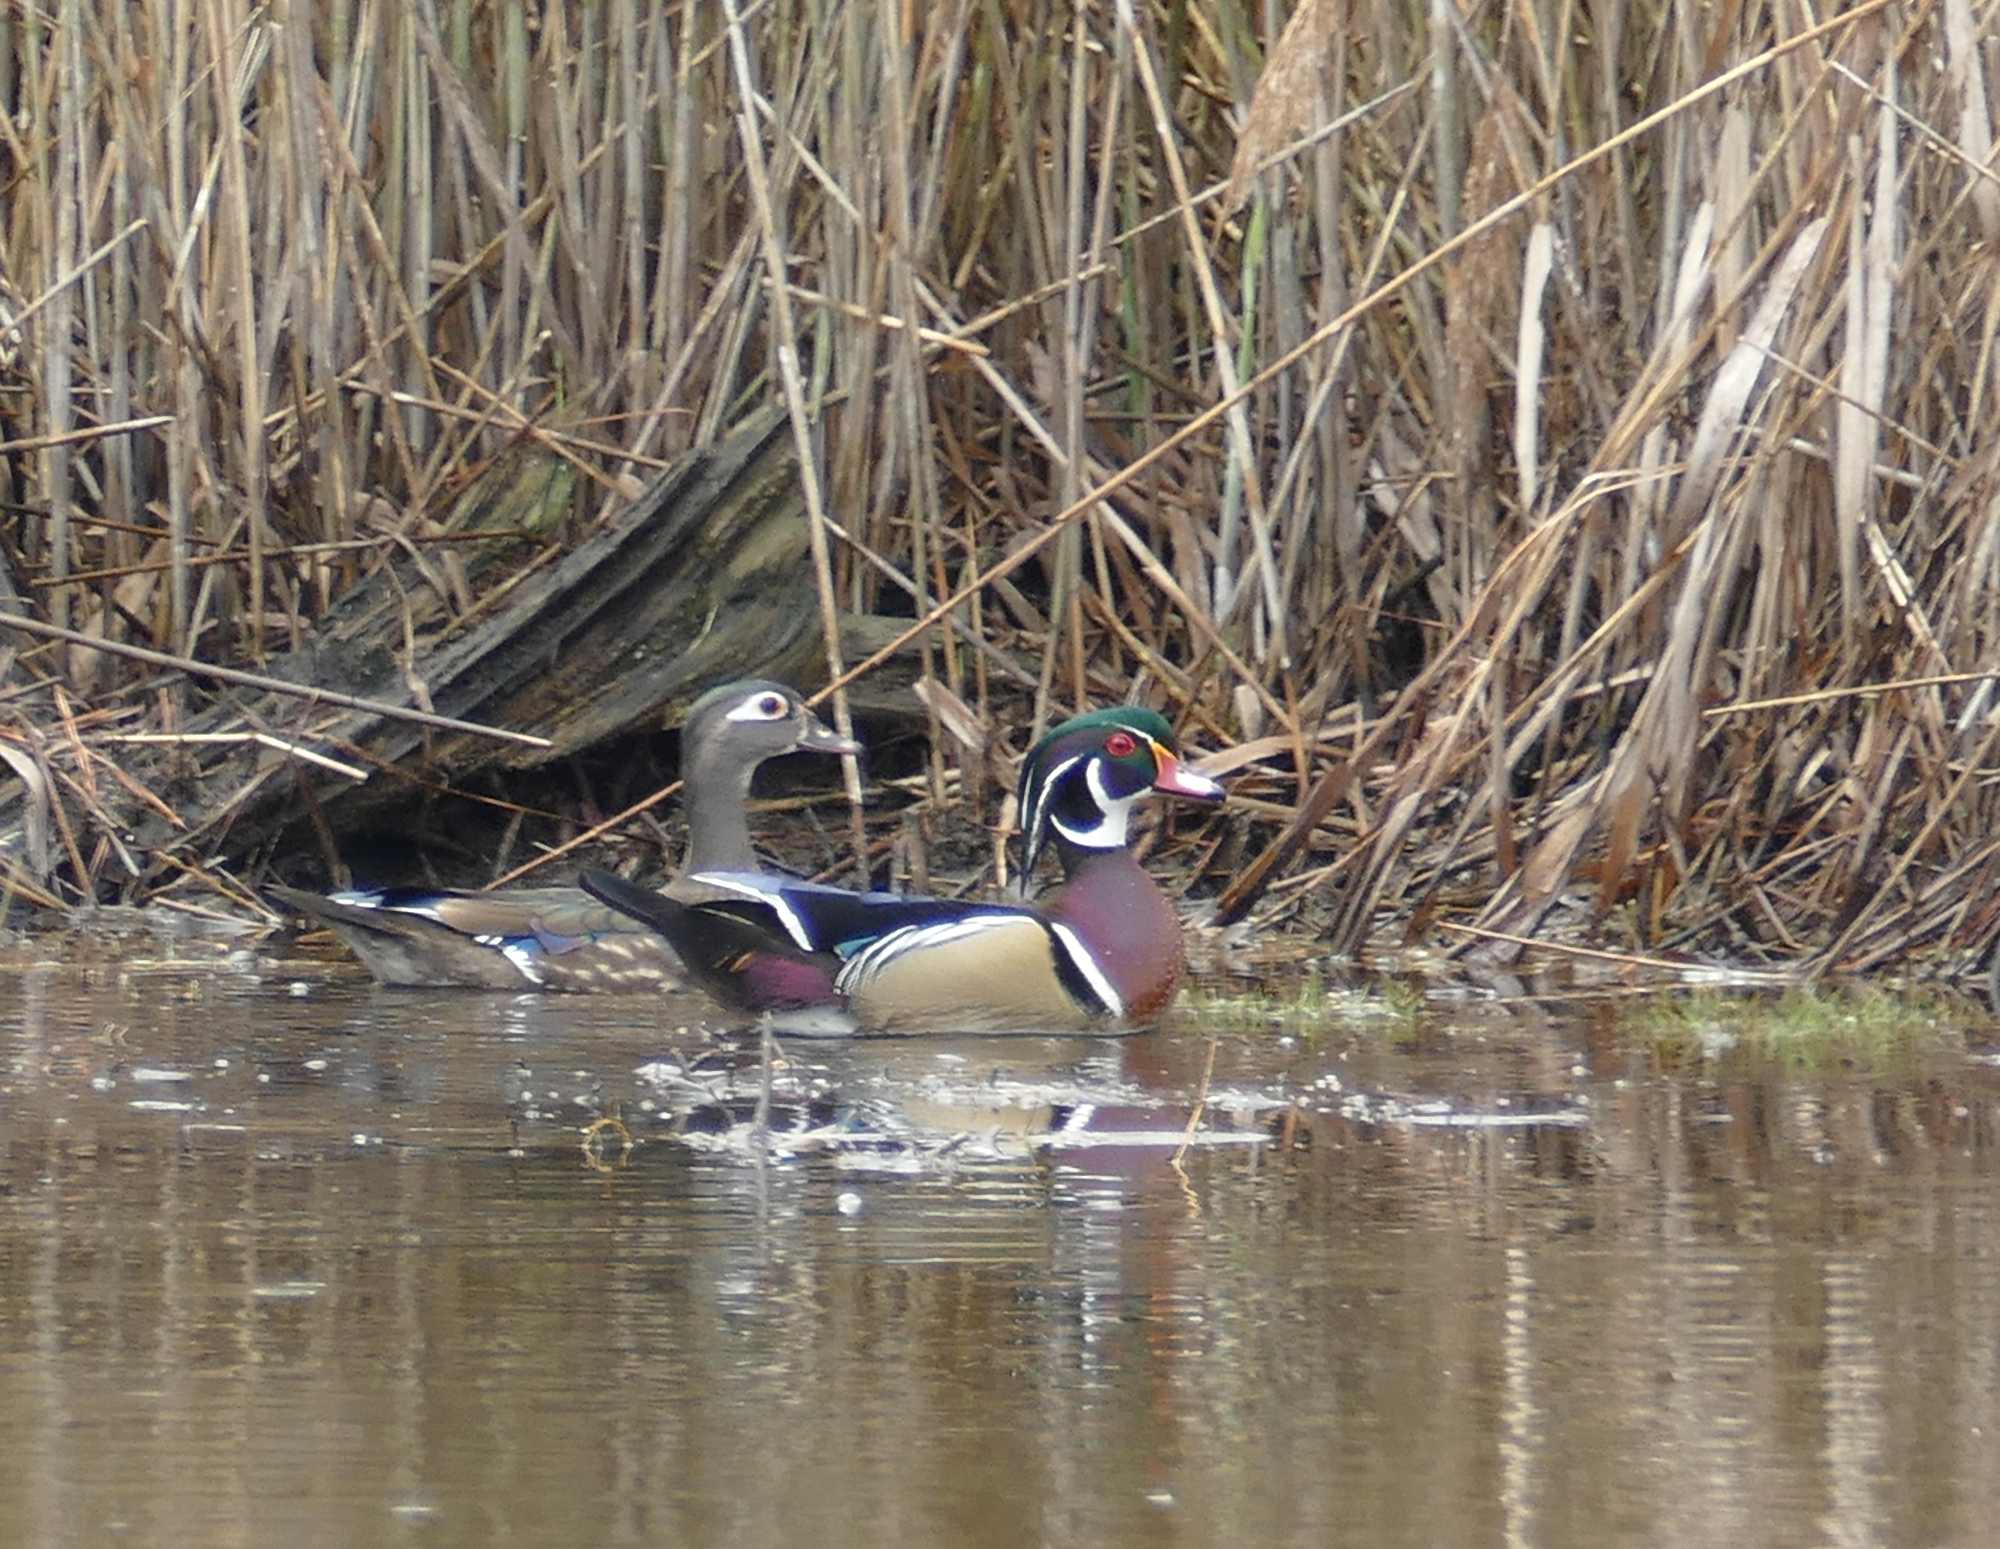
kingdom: Animalia
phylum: Chordata
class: Aves
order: Anseriformes
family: Anatidae
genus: Aix
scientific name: Aix sponsa
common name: Wood duck
